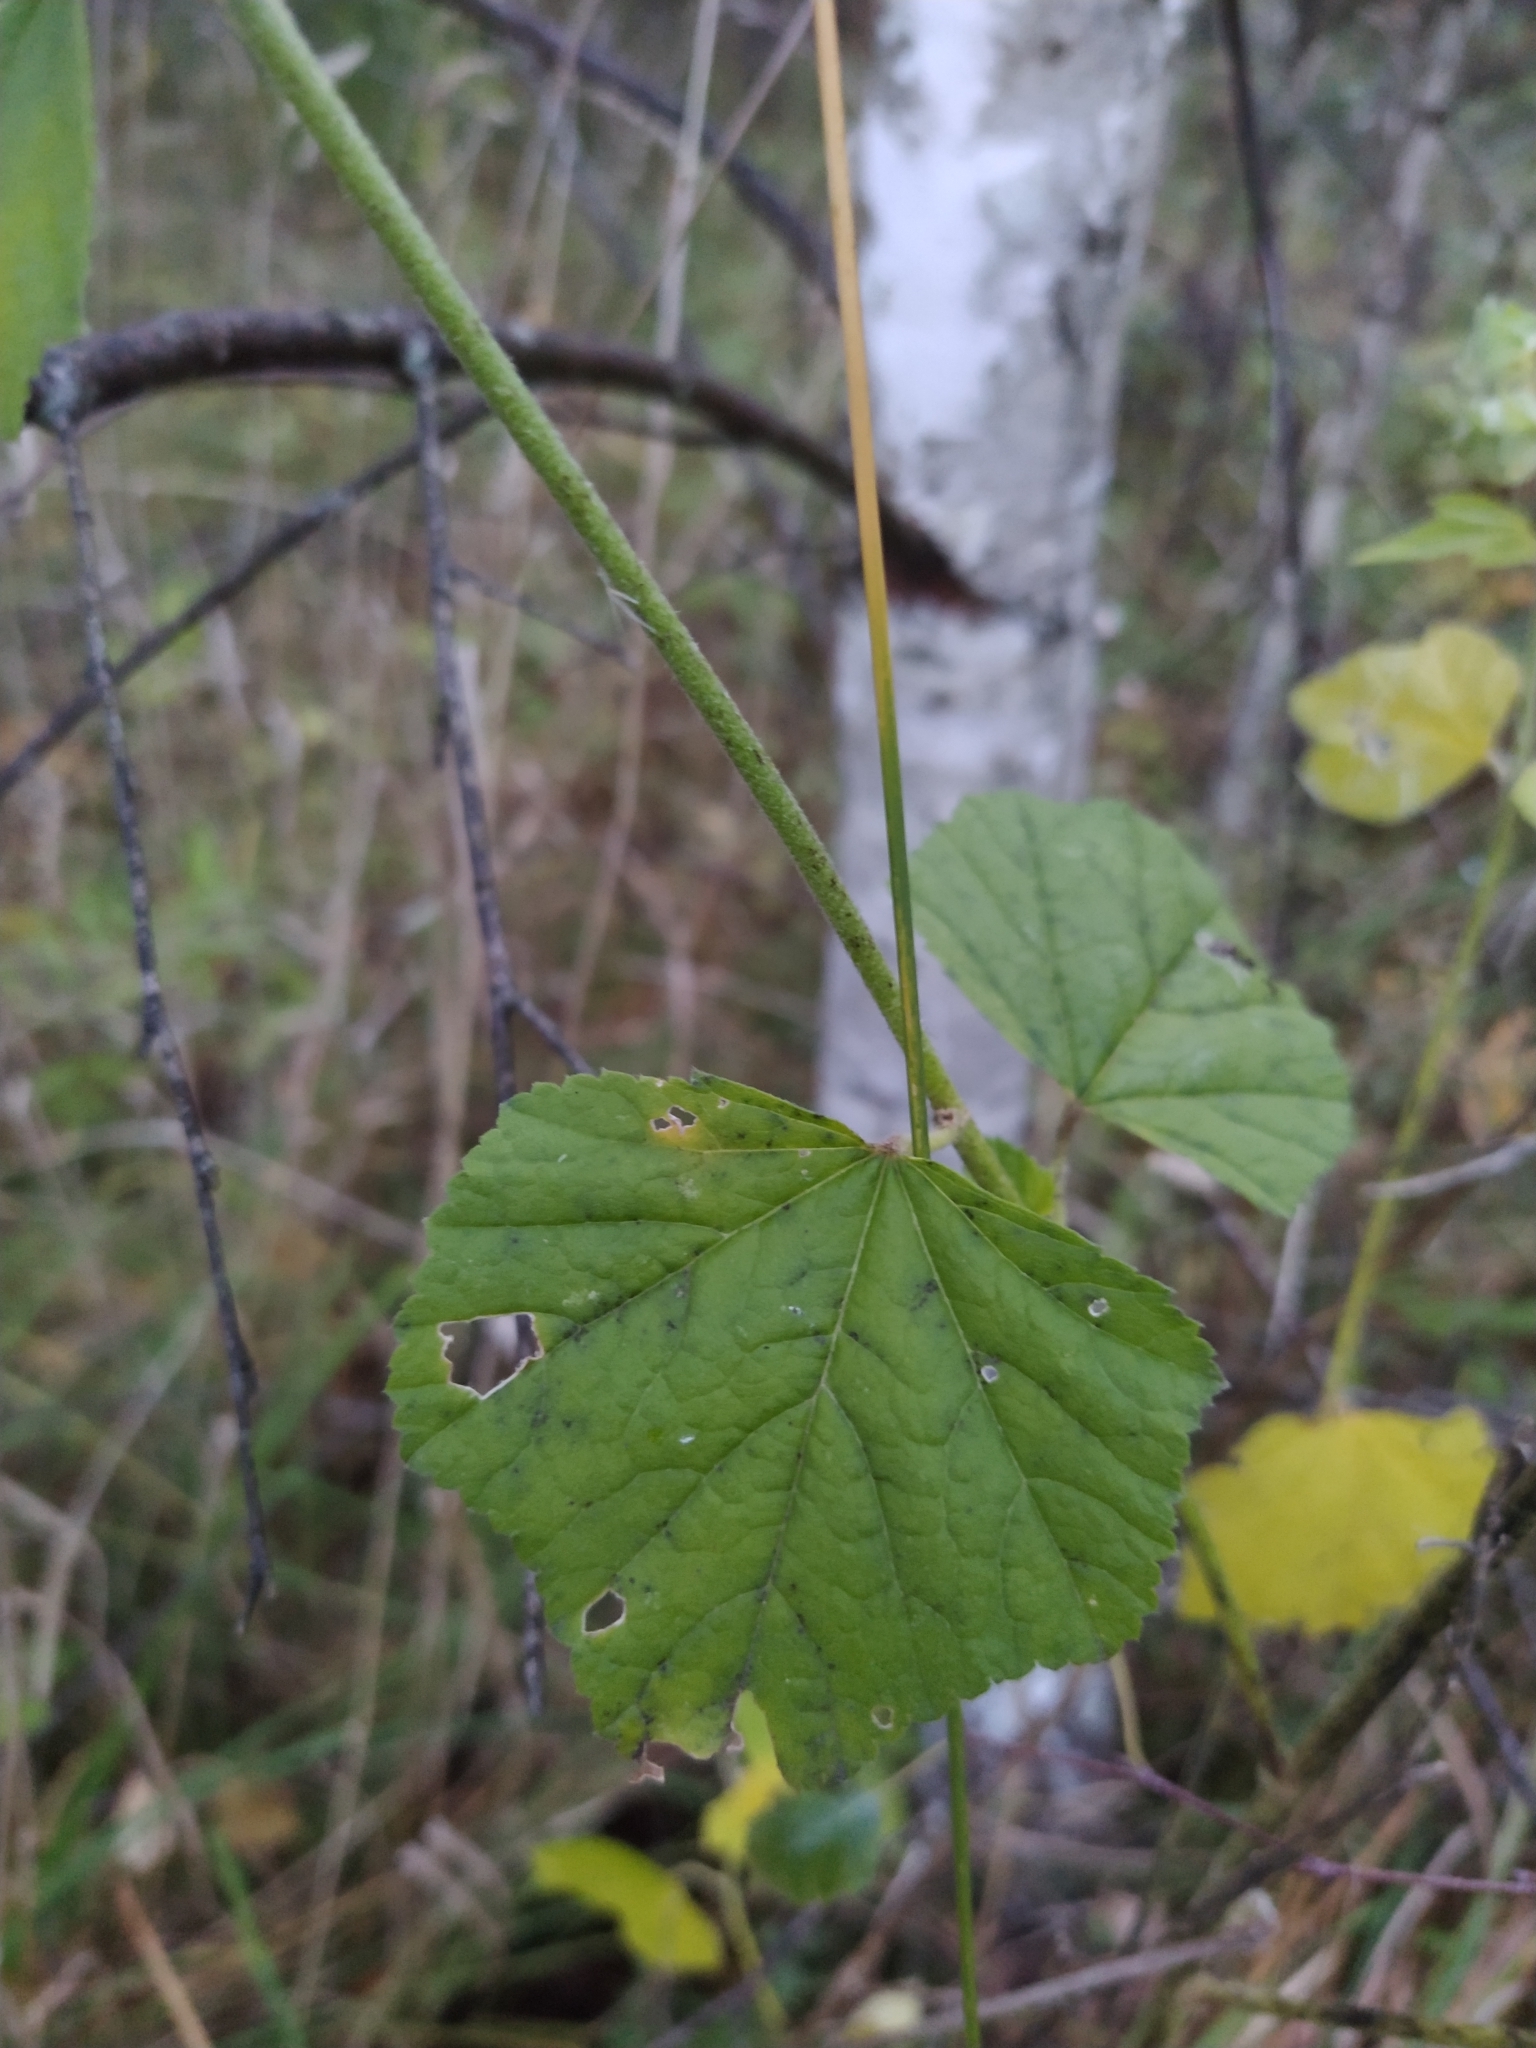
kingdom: Plantae
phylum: Tracheophyta
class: Magnoliopsida
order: Malvales
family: Malvaceae
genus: Malva
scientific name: Malva thuringiaca
